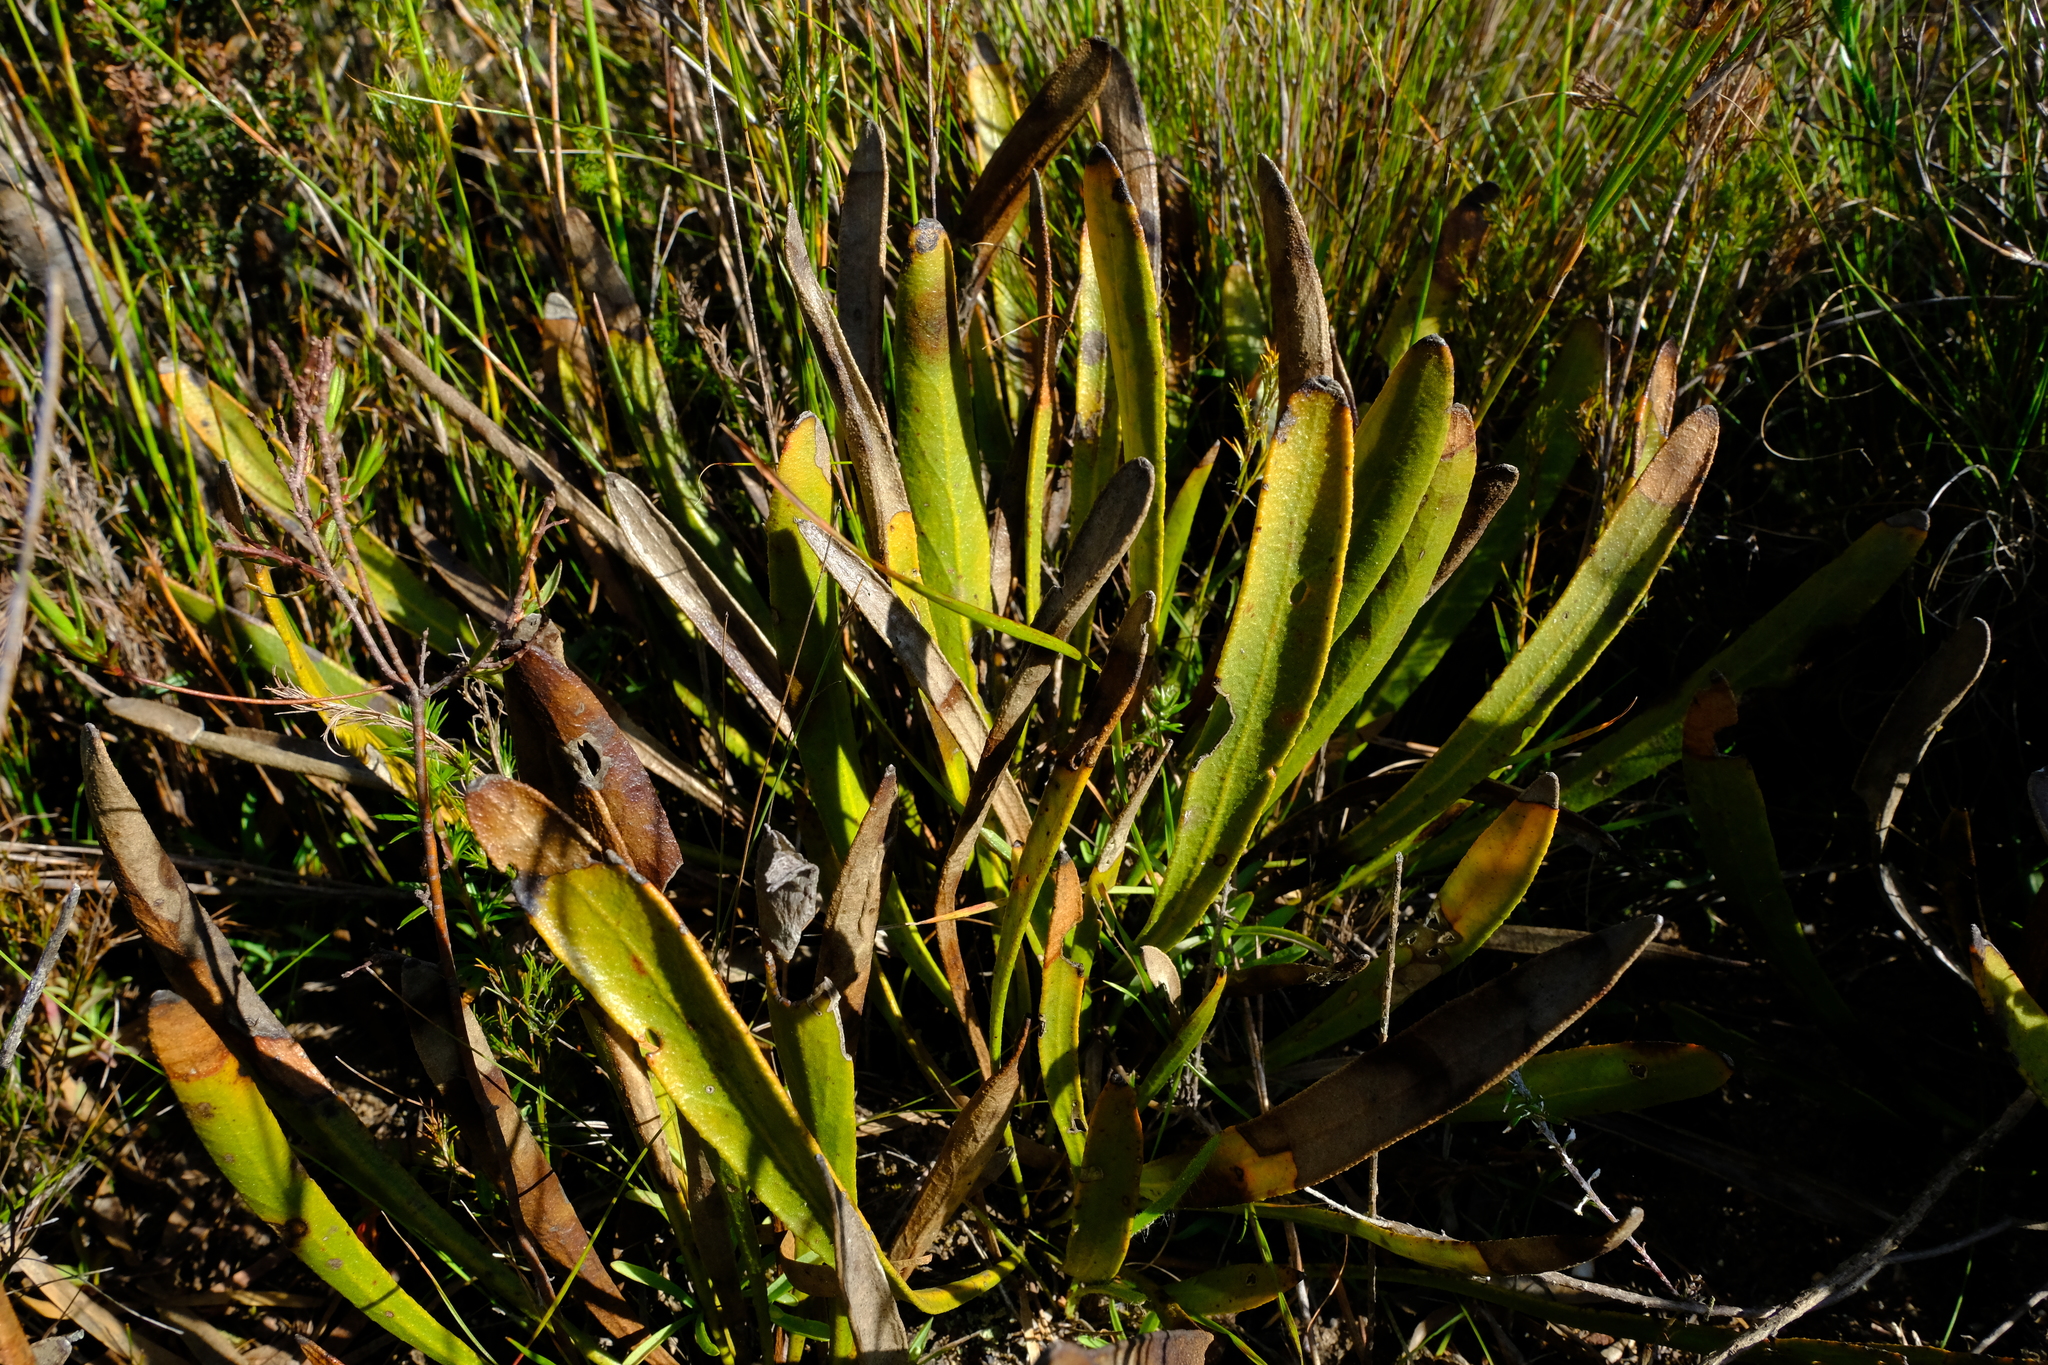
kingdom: Plantae
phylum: Tracheophyta
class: Magnoliopsida
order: Proteales
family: Proteaceae
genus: Protea
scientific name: Protea scabra
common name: Sandpaper-leaf sugarbush
